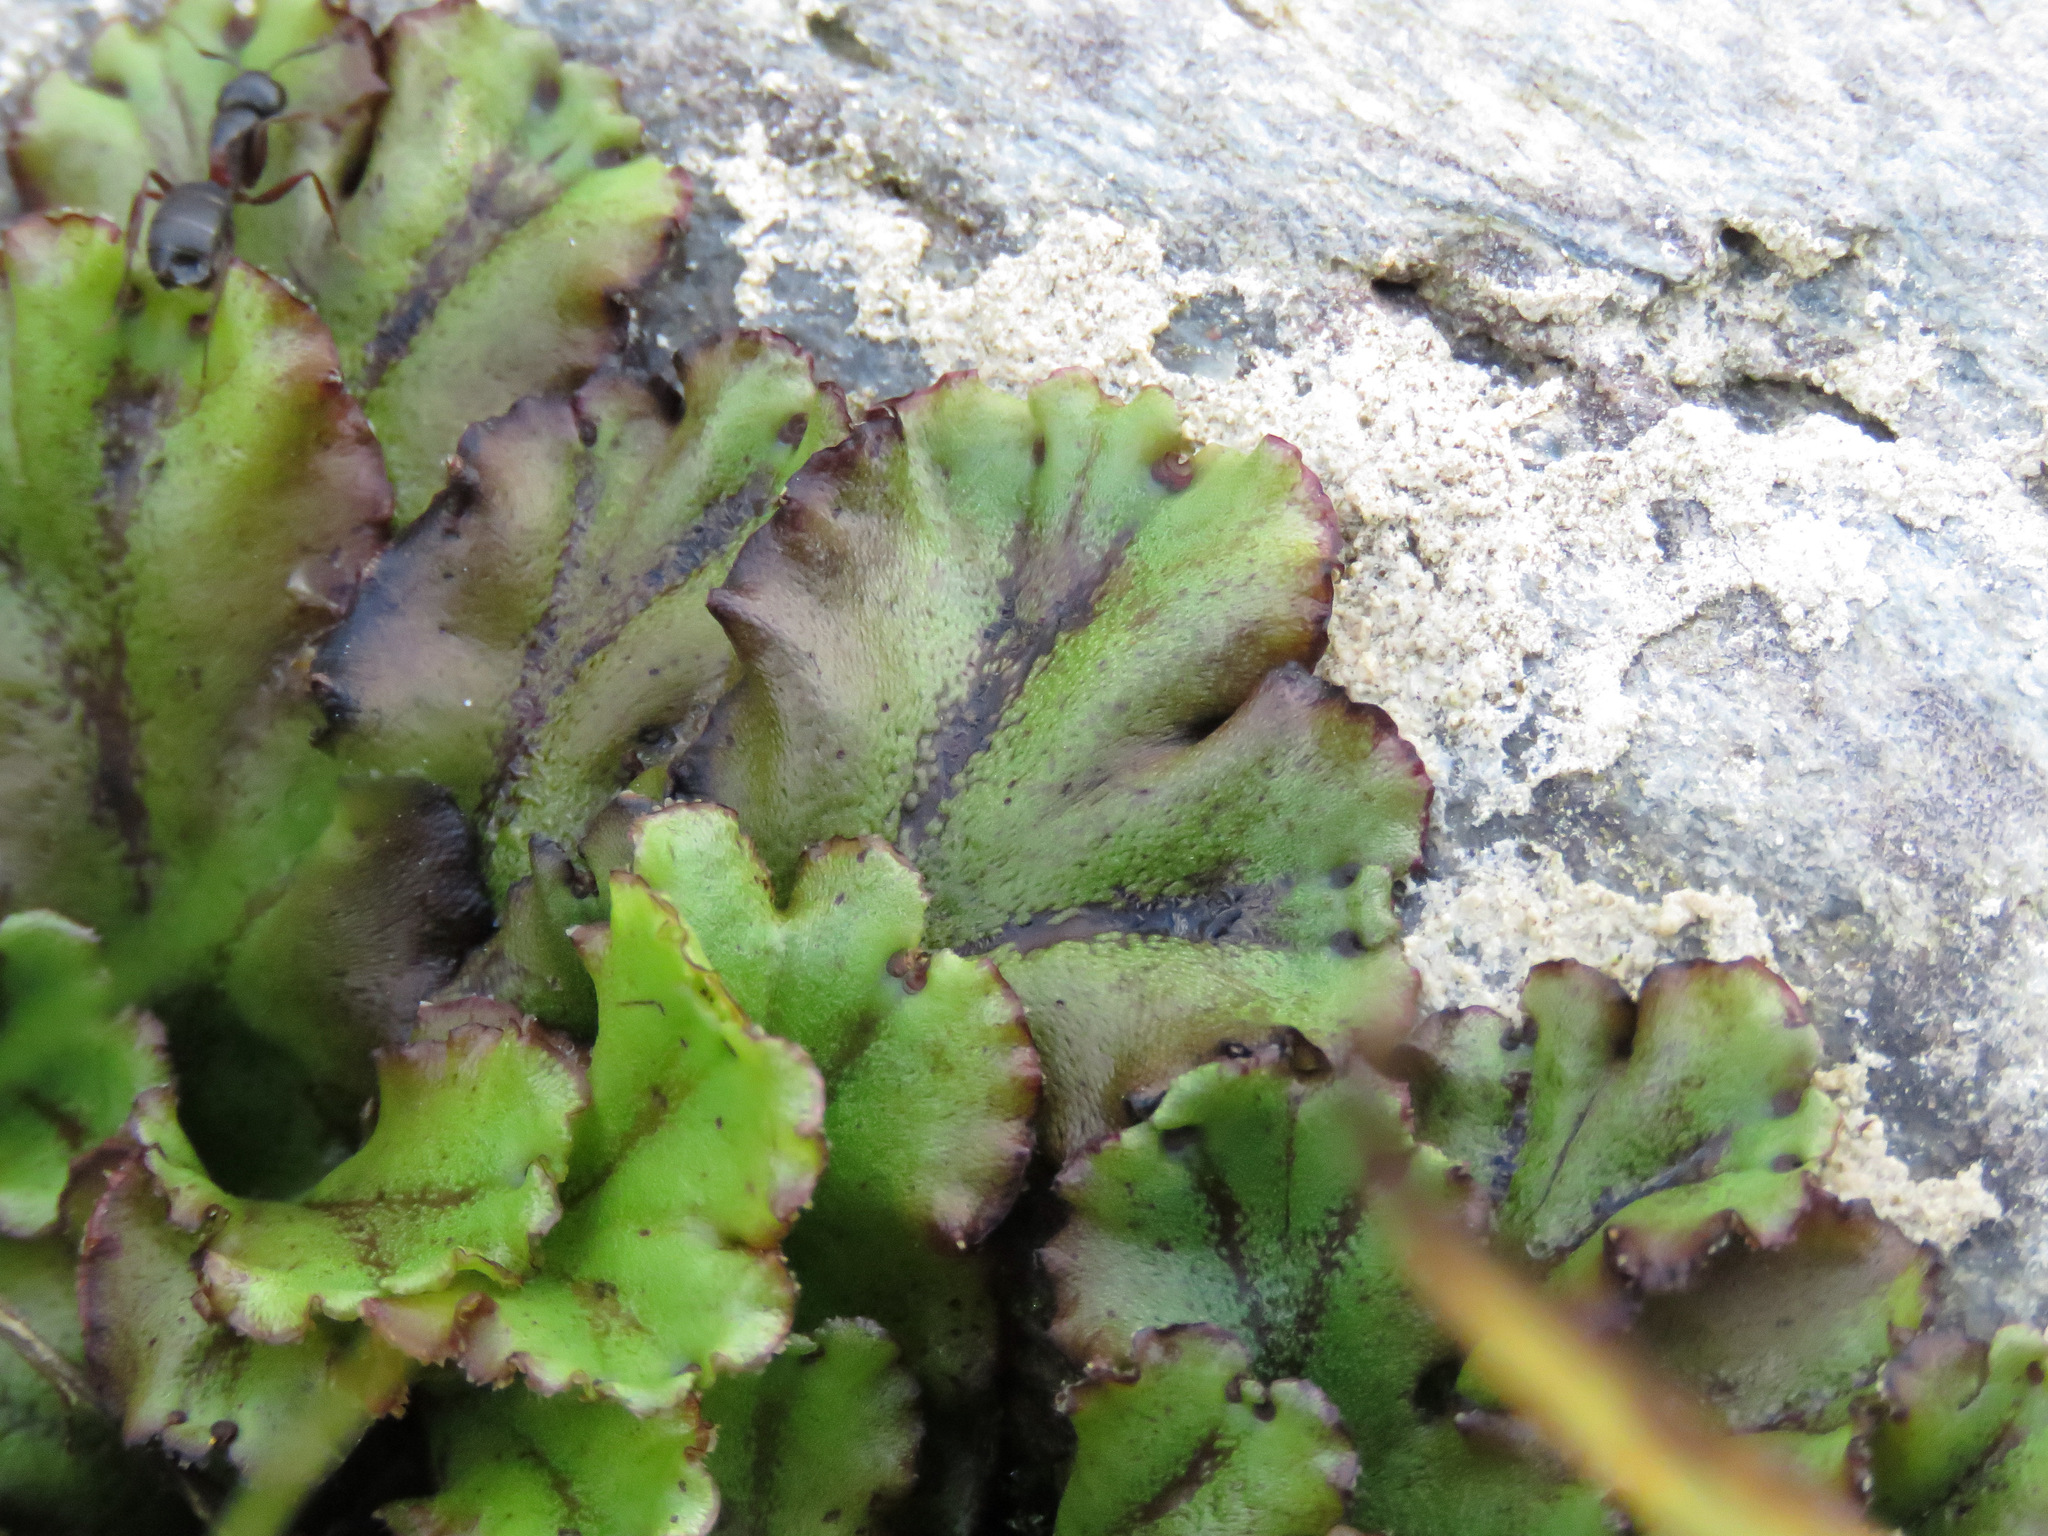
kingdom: Plantae
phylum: Marchantiophyta
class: Marchantiopsida
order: Marchantiales
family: Marchantiaceae
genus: Marchantia
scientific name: Marchantia polymorpha
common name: Common liverwort
